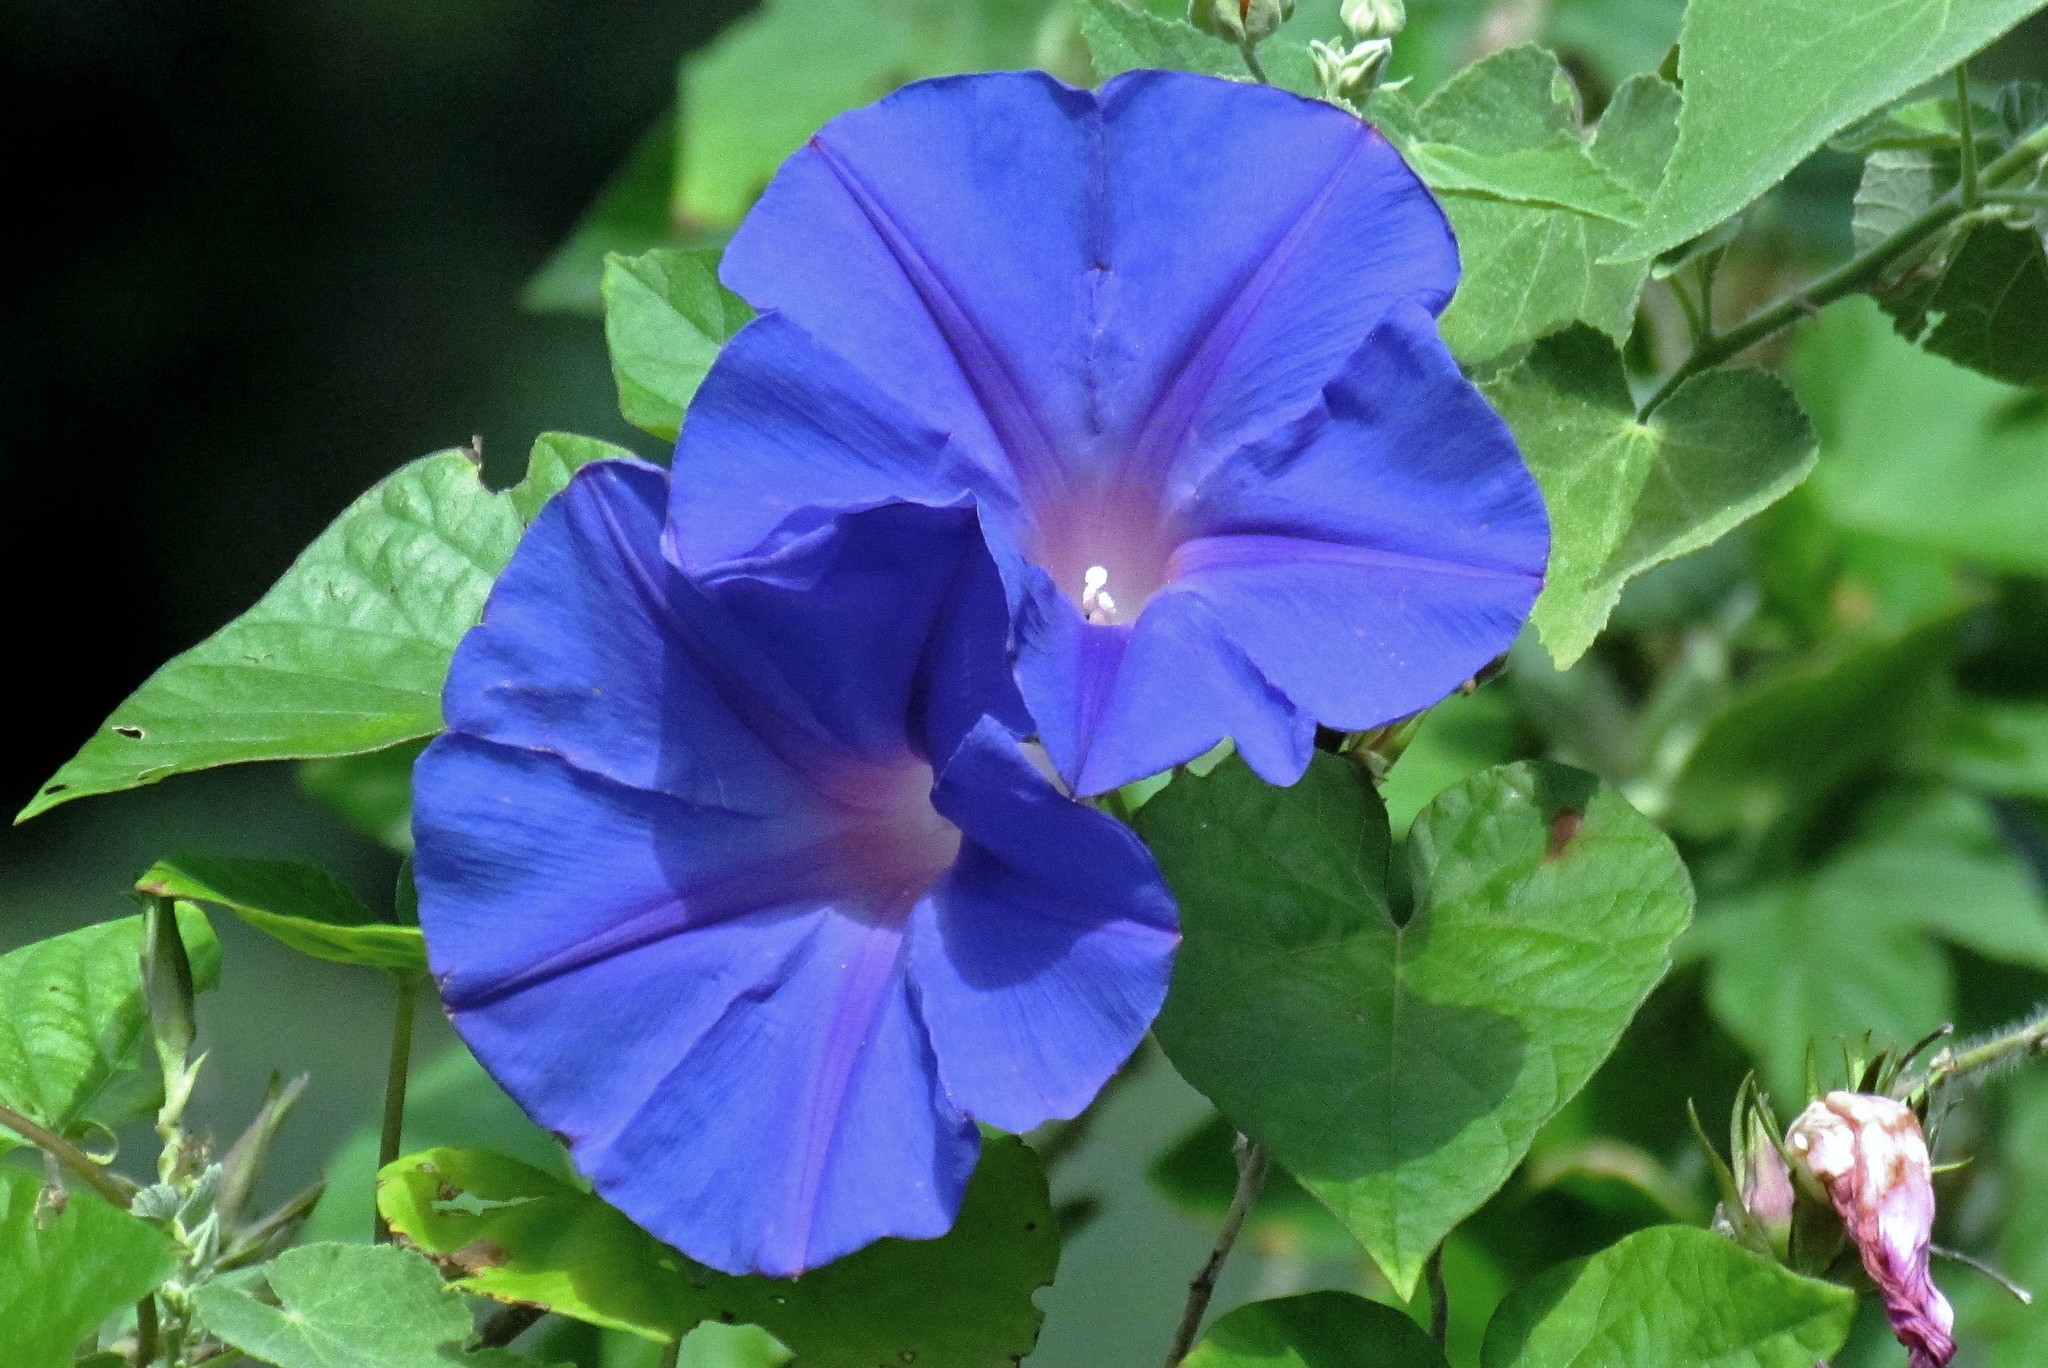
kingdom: Plantae
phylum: Tracheophyta
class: Magnoliopsida
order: Solanales
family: Convolvulaceae
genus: Ipomoea
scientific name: Ipomoea indica
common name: Blue dawnflower
